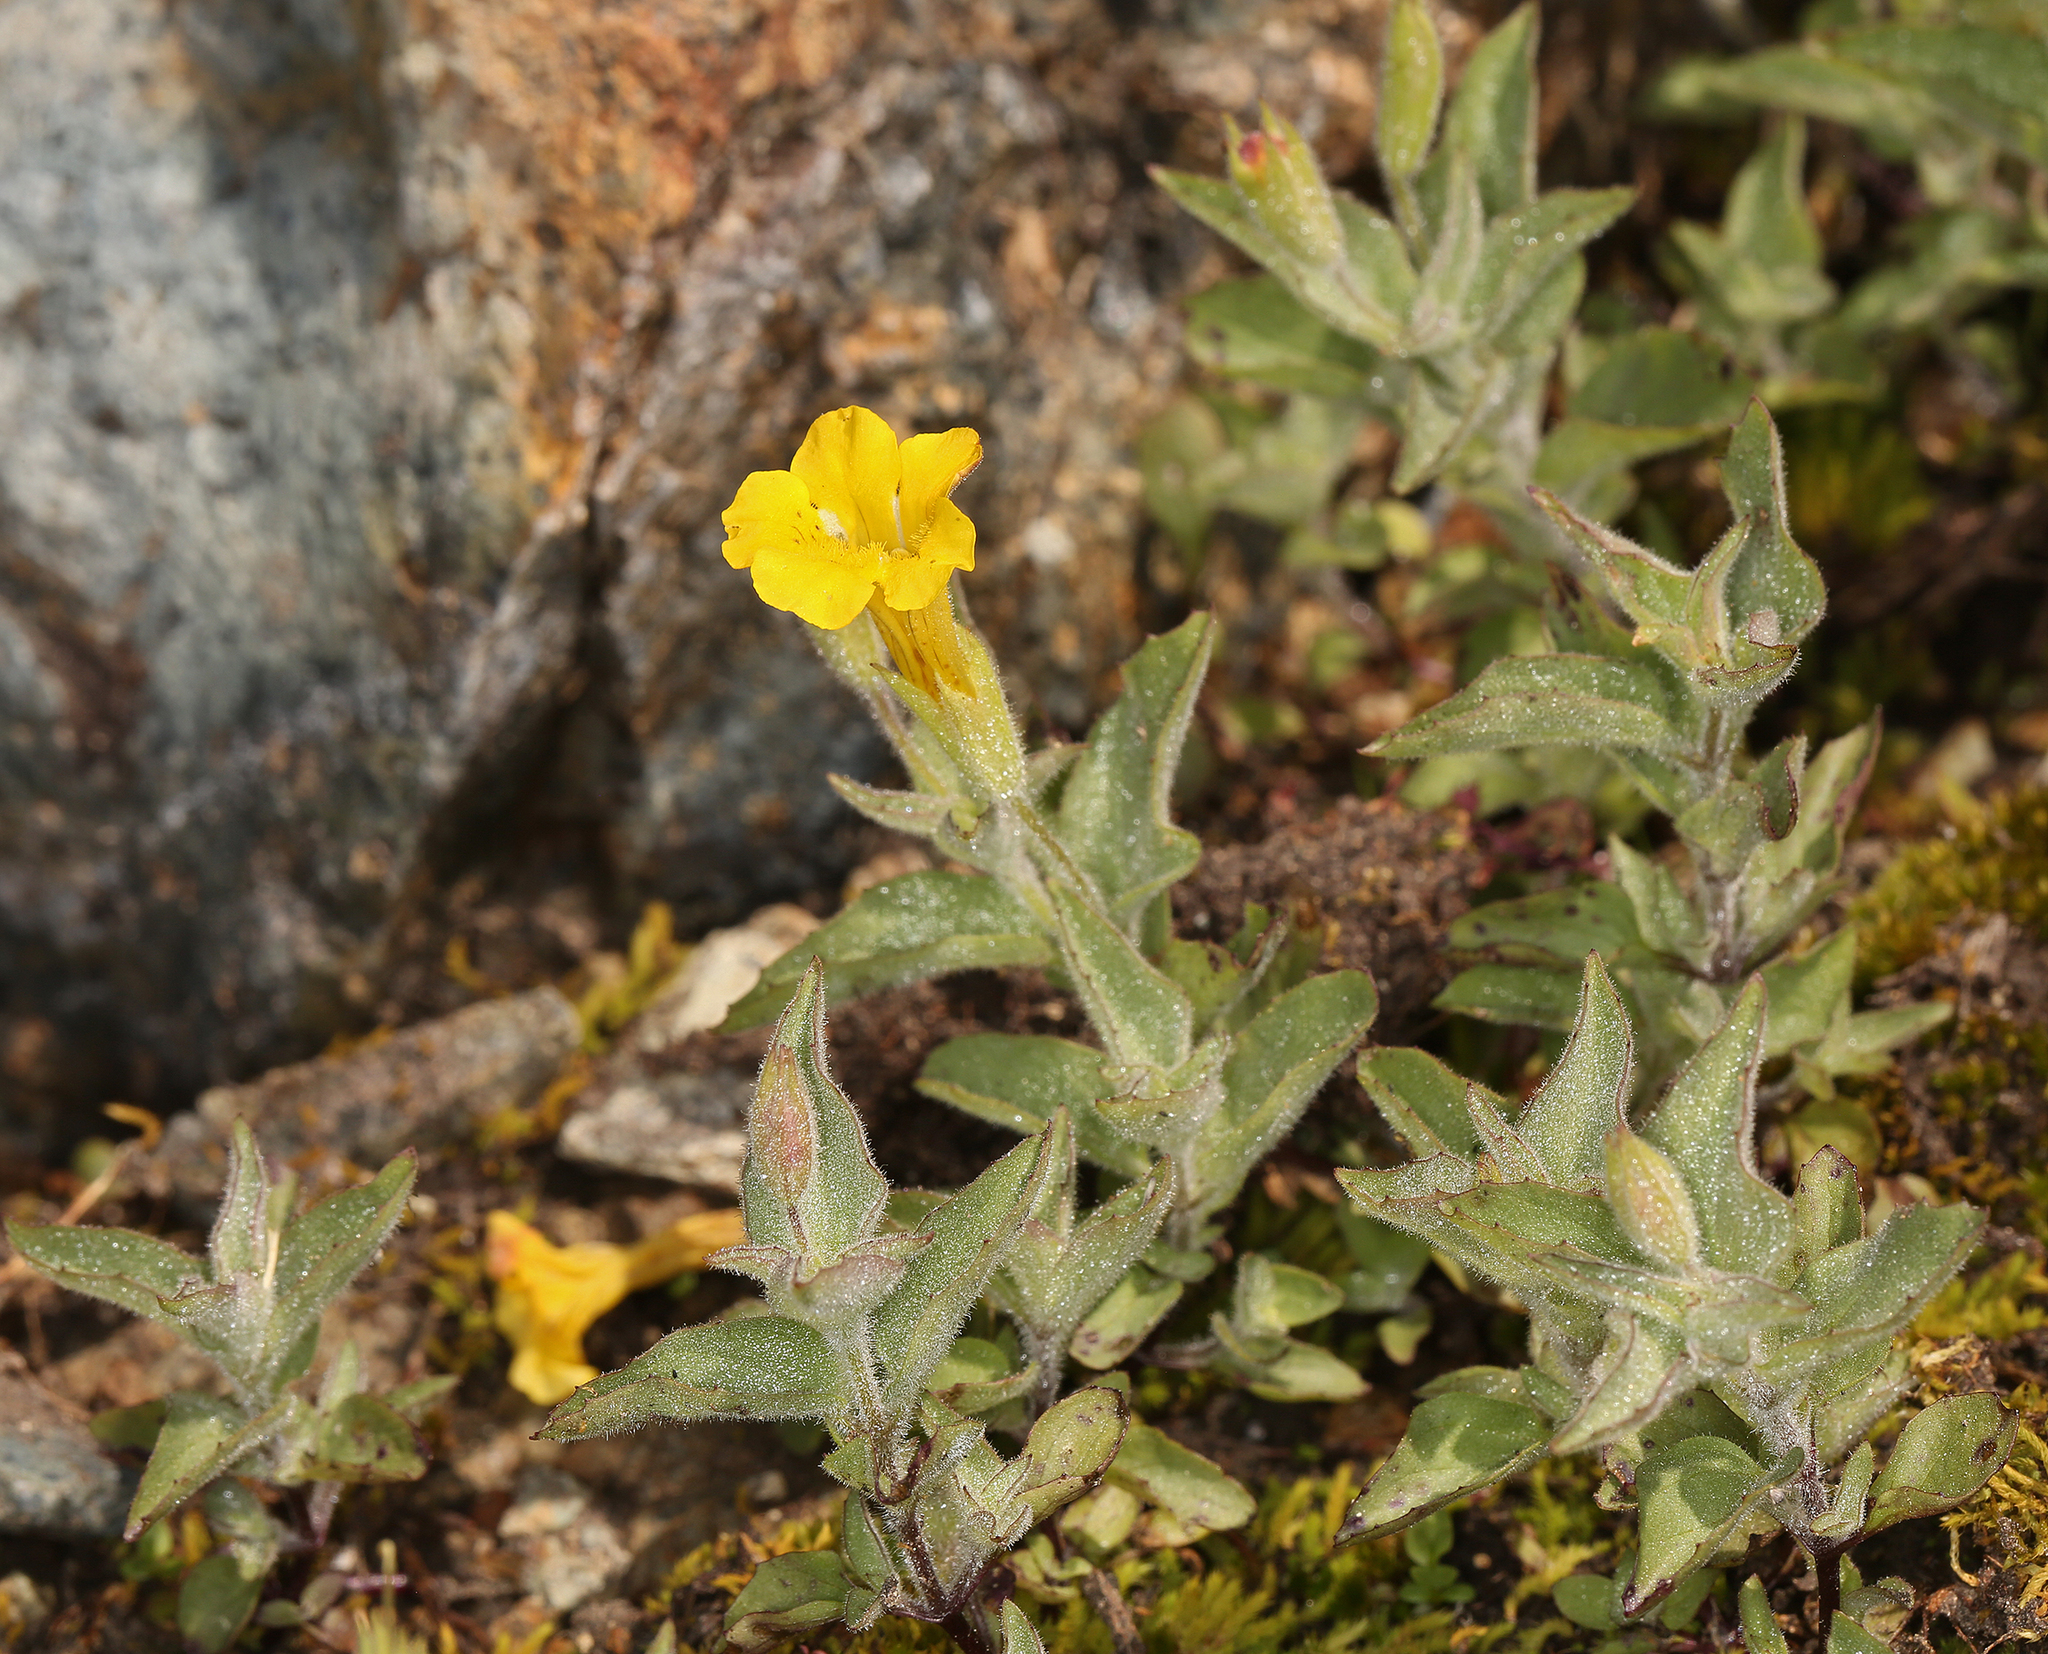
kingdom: Plantae
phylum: Tracheophyta
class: Magnoliopsida
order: Lamiales
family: Phrymaceae
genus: Erythranthe
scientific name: Erythranthe moschata
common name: Muskflower
